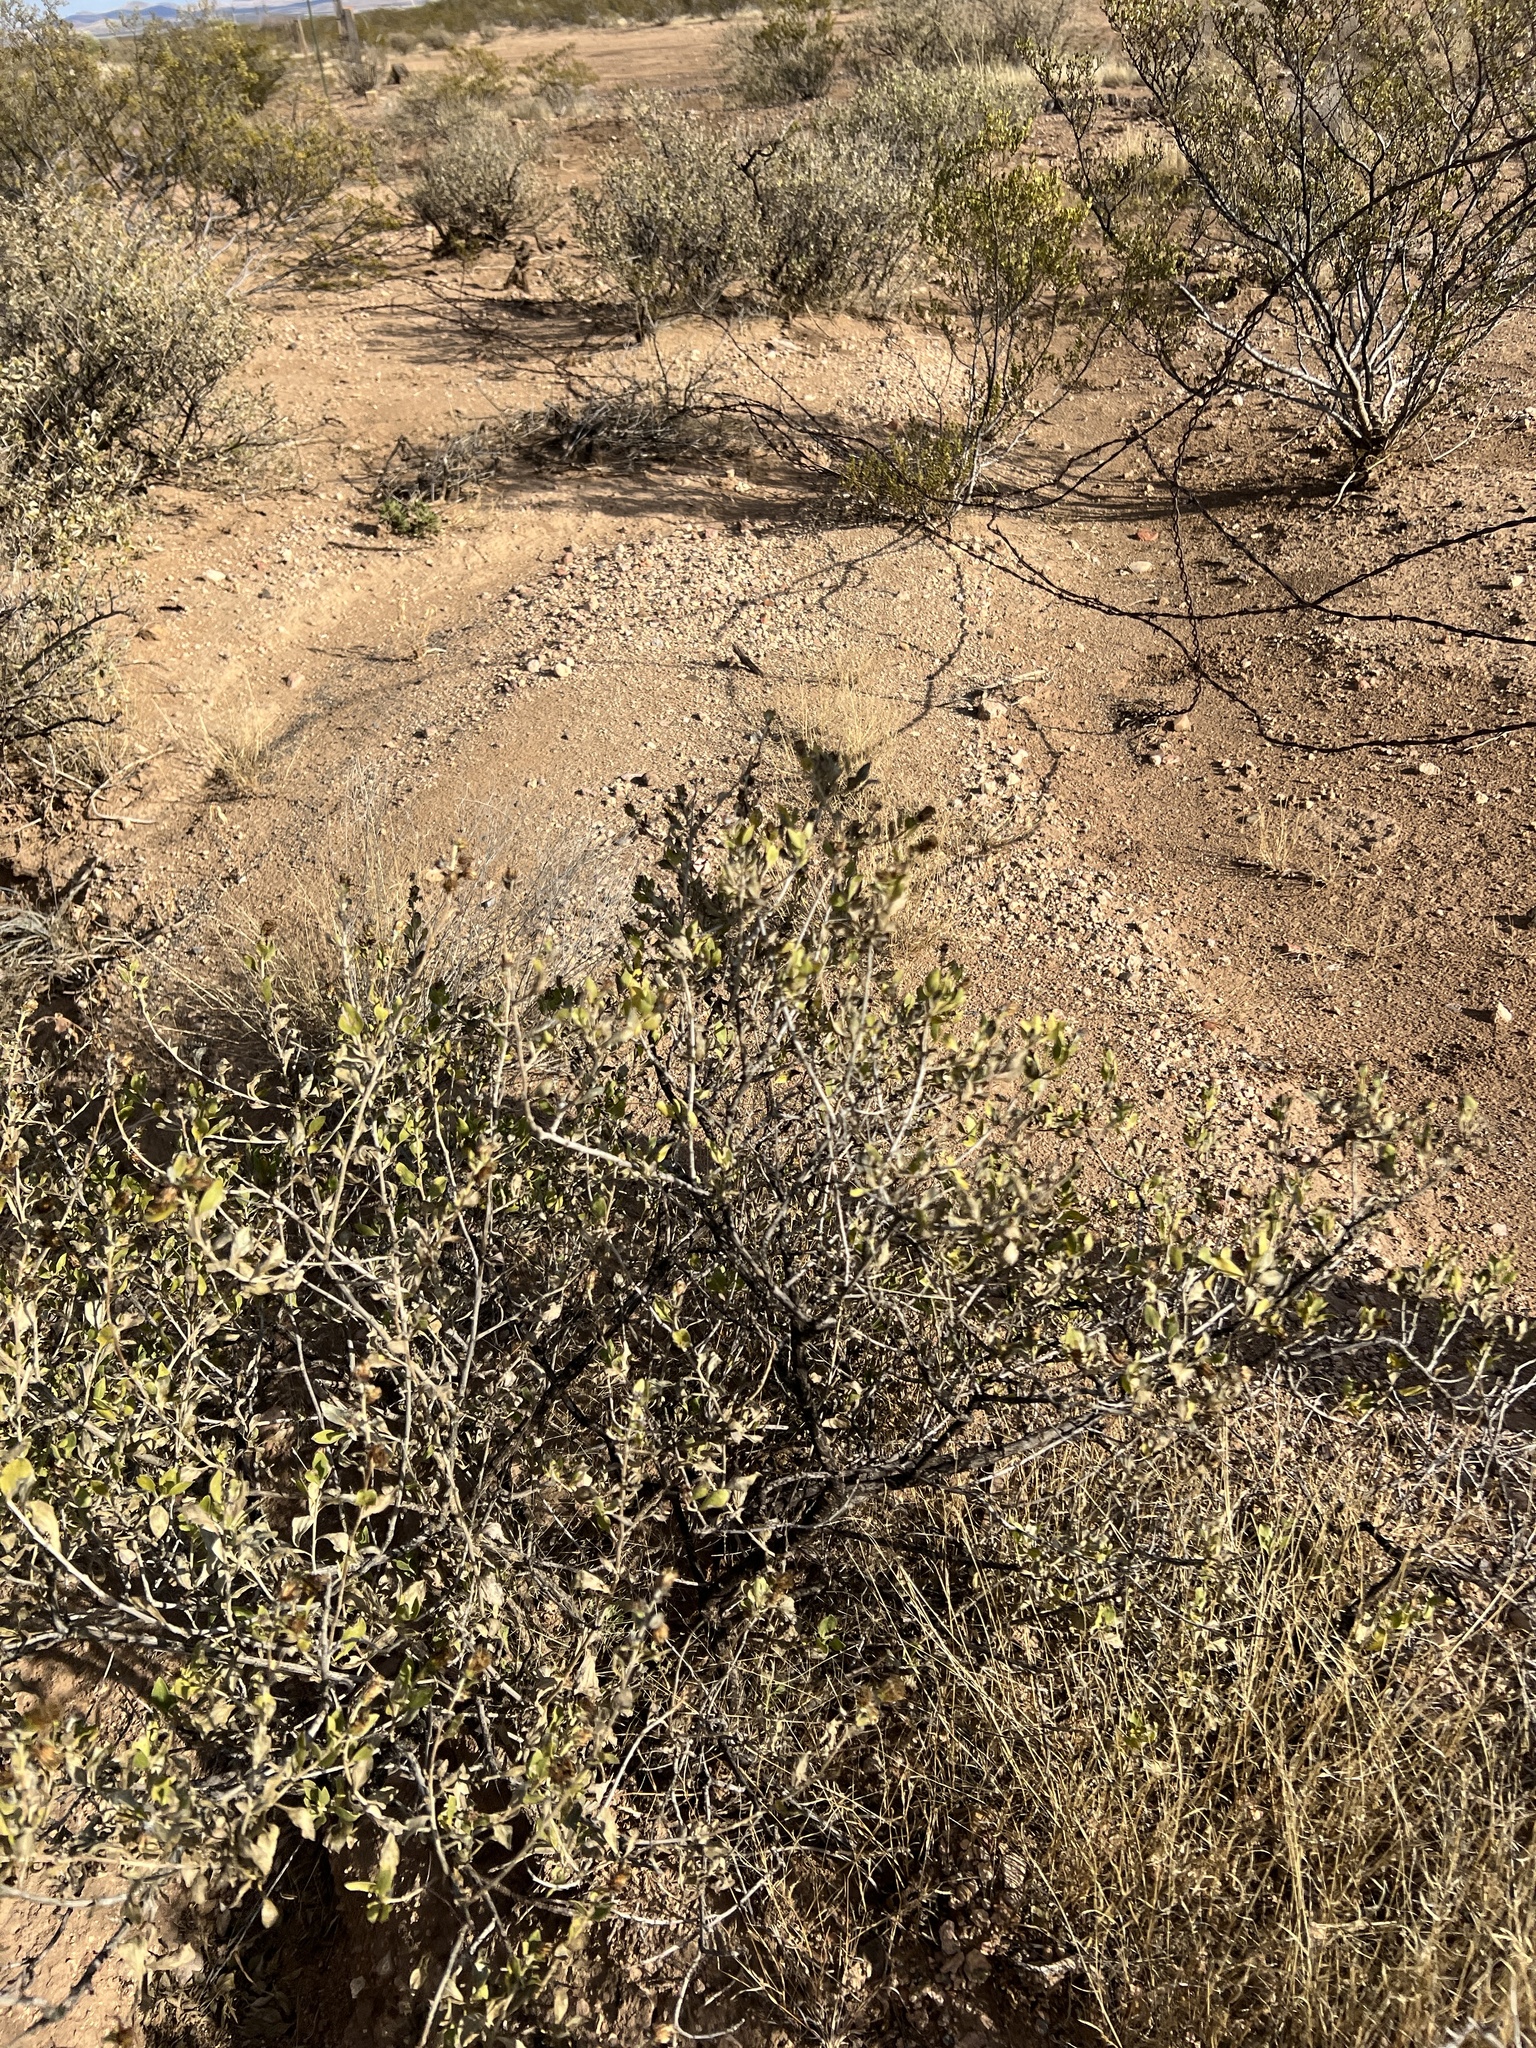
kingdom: Plantae
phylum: Tracheophyta
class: Magnoliopsida
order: Asterales
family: Asteraceae
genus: Flourensia
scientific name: Flourensia cernua
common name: Varnishbush
